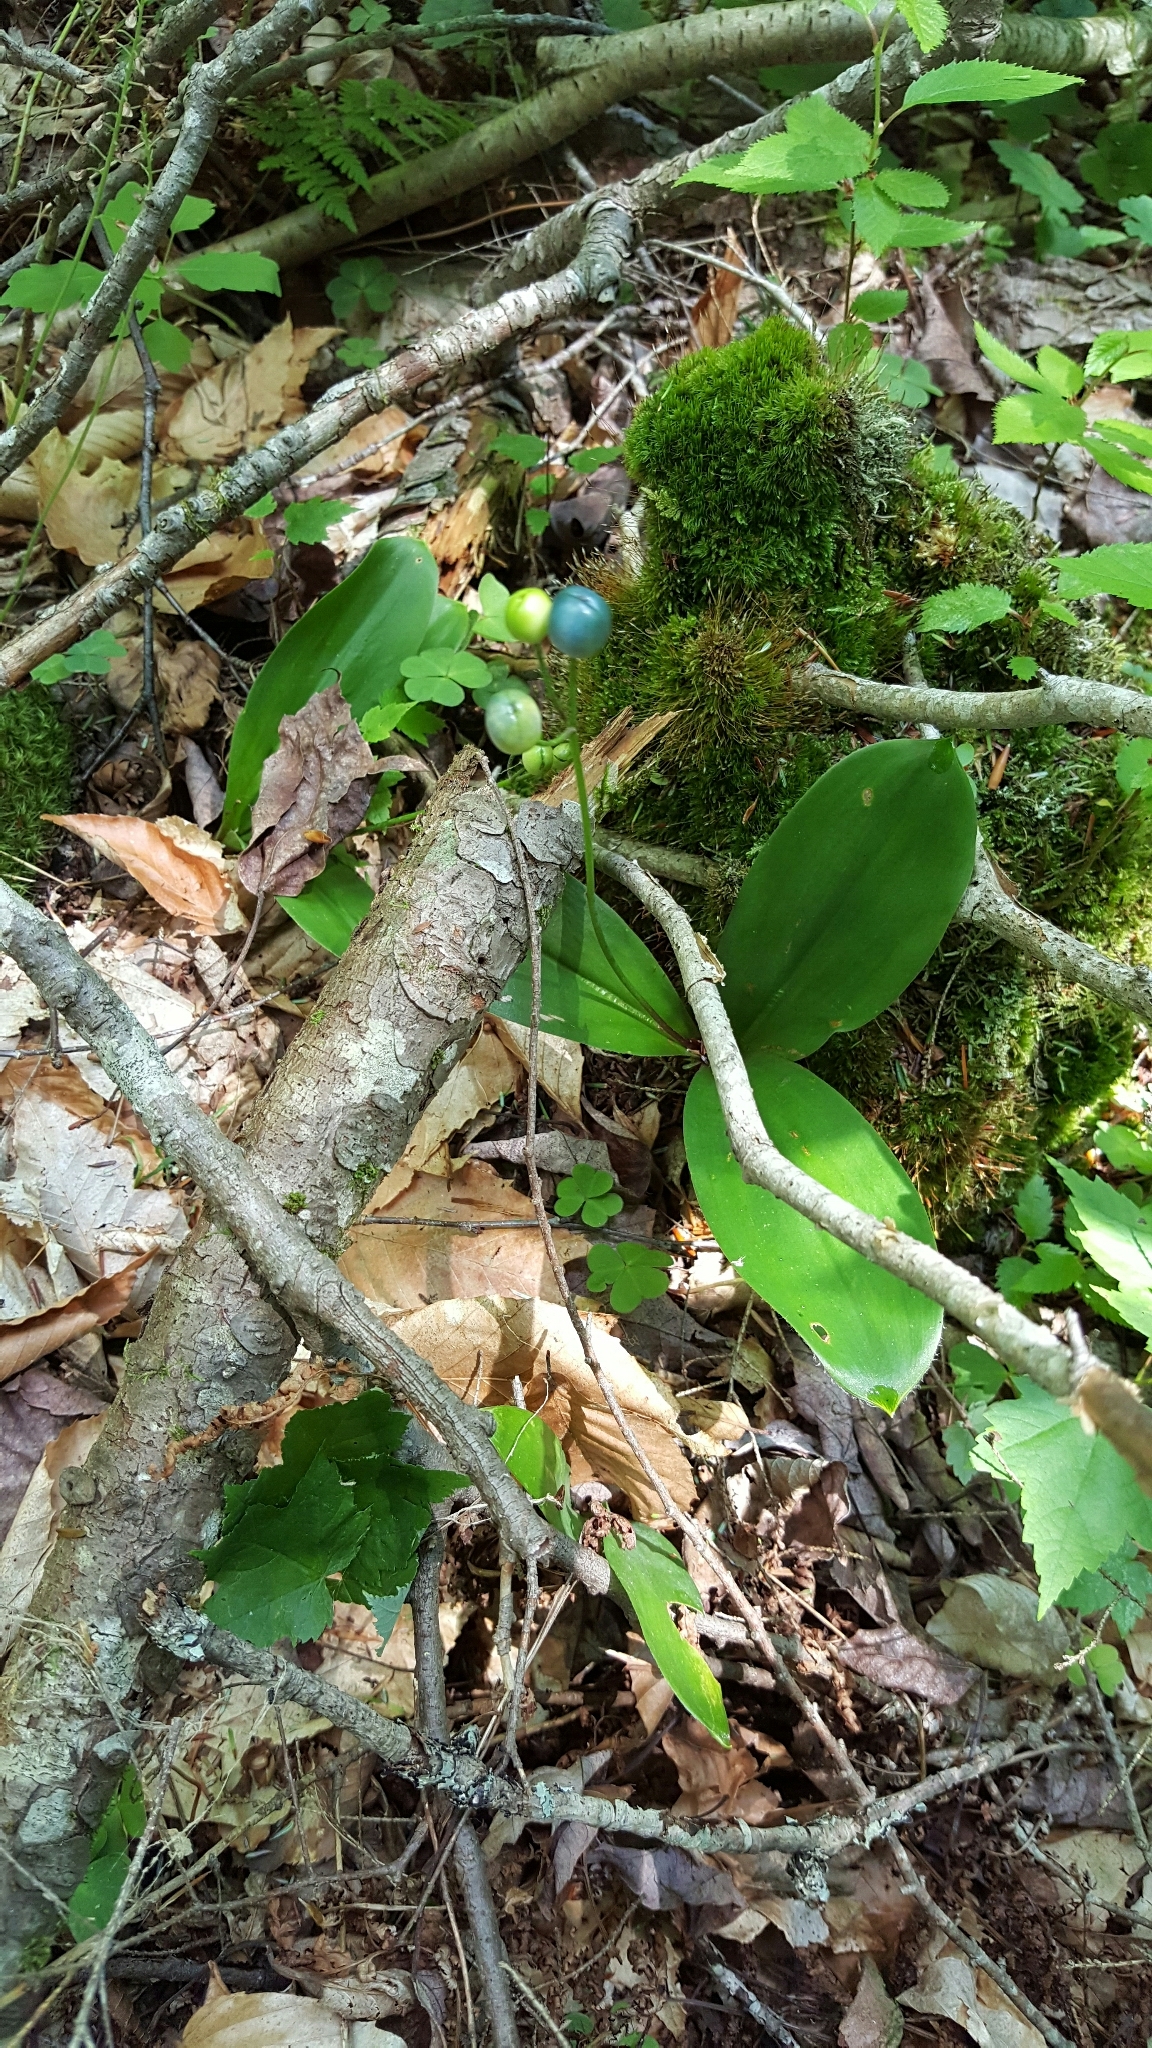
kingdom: Plantae
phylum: Tracheophyta
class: Liliopsida
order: Liliales
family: Liliaceae
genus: Clintonia
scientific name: Clintonia borealis
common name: Yellow clintonia
